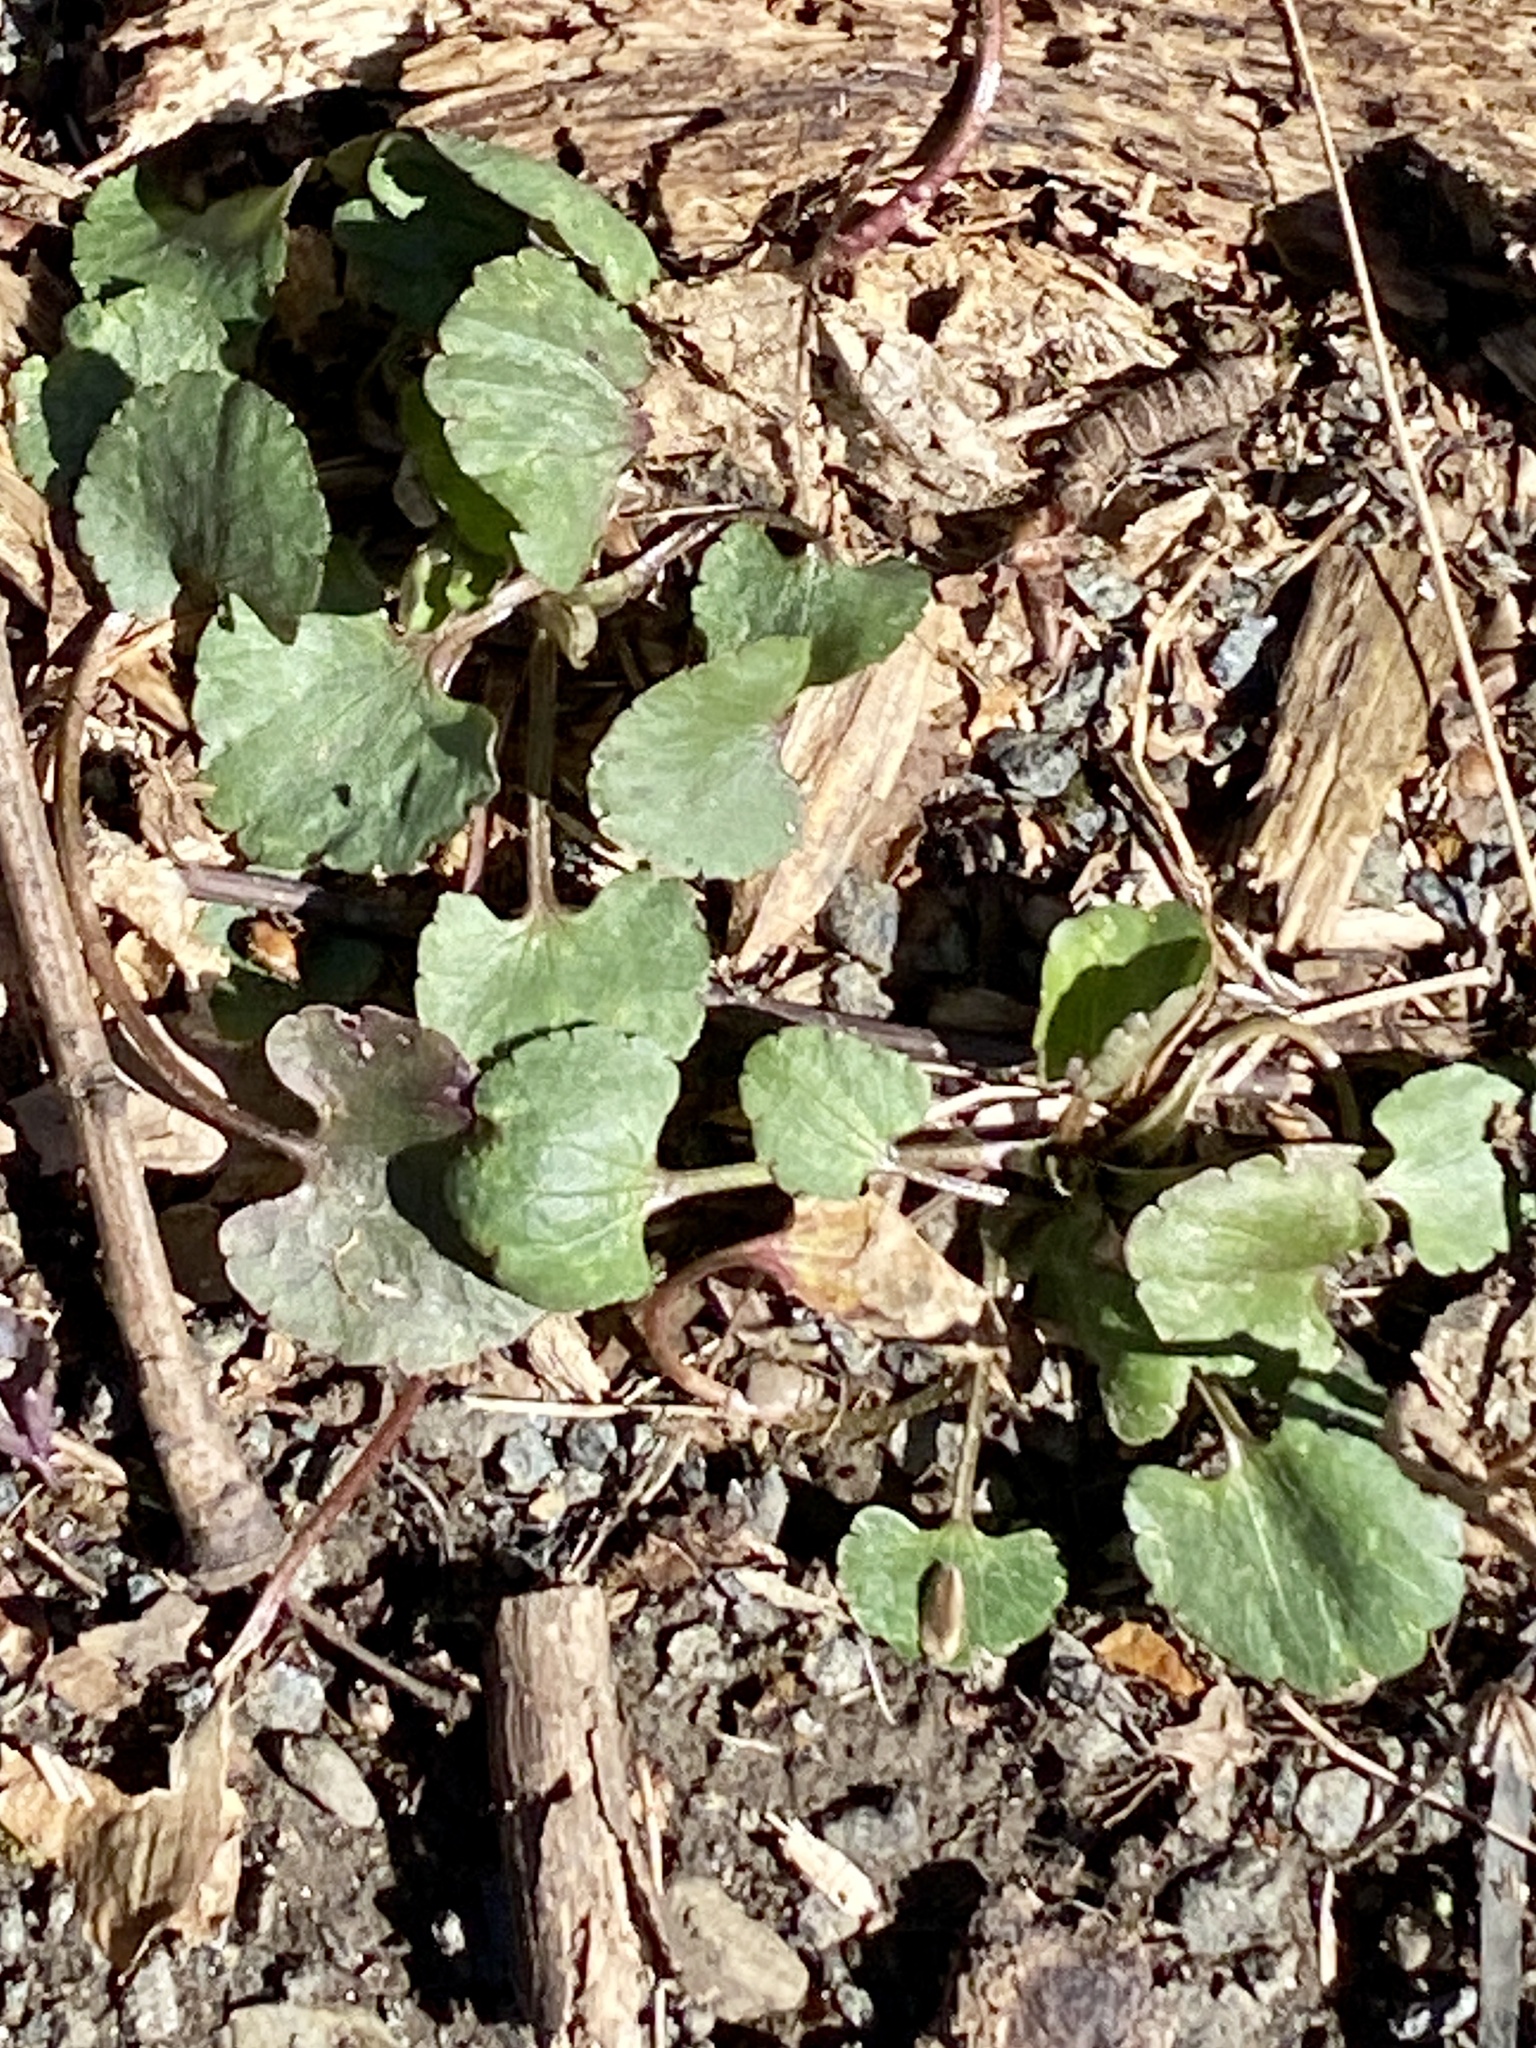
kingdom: Plantae
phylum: Tracheophyta
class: Magnoliopsida
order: Ranunculales
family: Ranunculaceae
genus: Ranunculus
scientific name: Ranunculus abortivus
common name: Early wood buttercup
